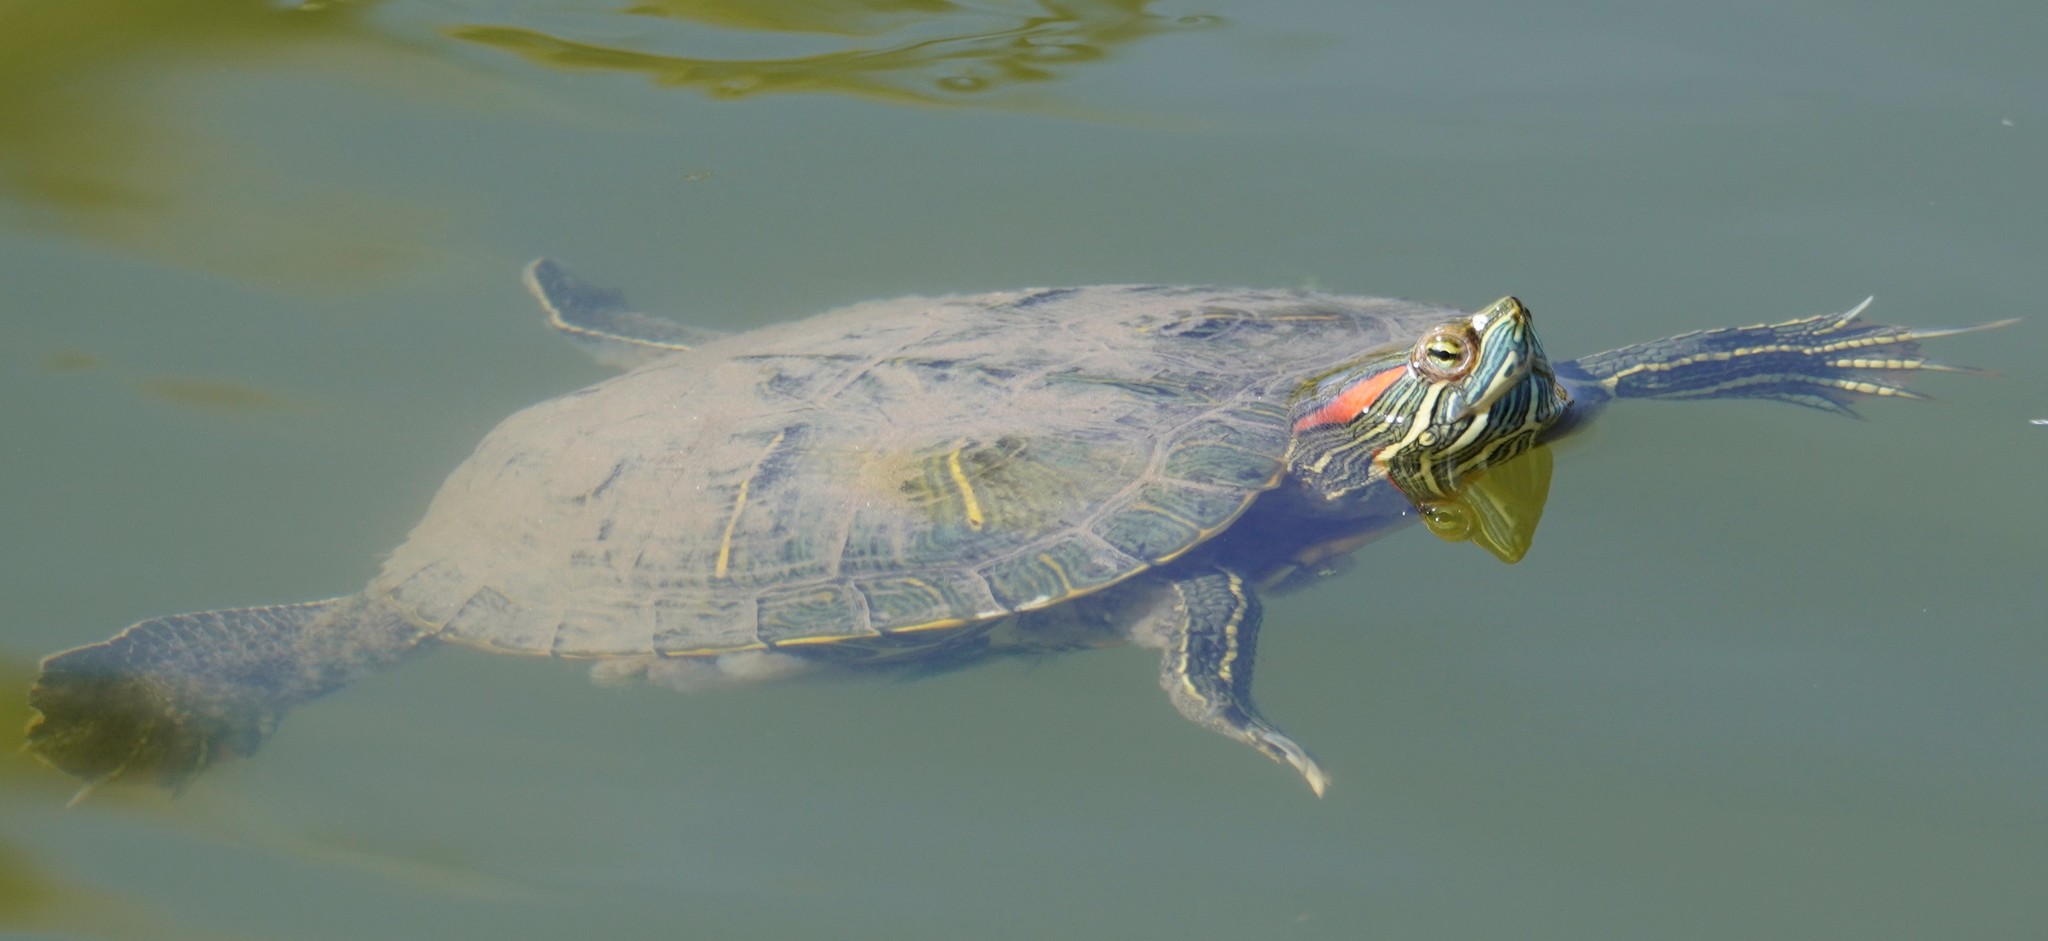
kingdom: Animalia
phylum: Chordata
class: Testudines
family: Emydidae
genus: Trachemys
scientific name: Trachemys scripta
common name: Slider
